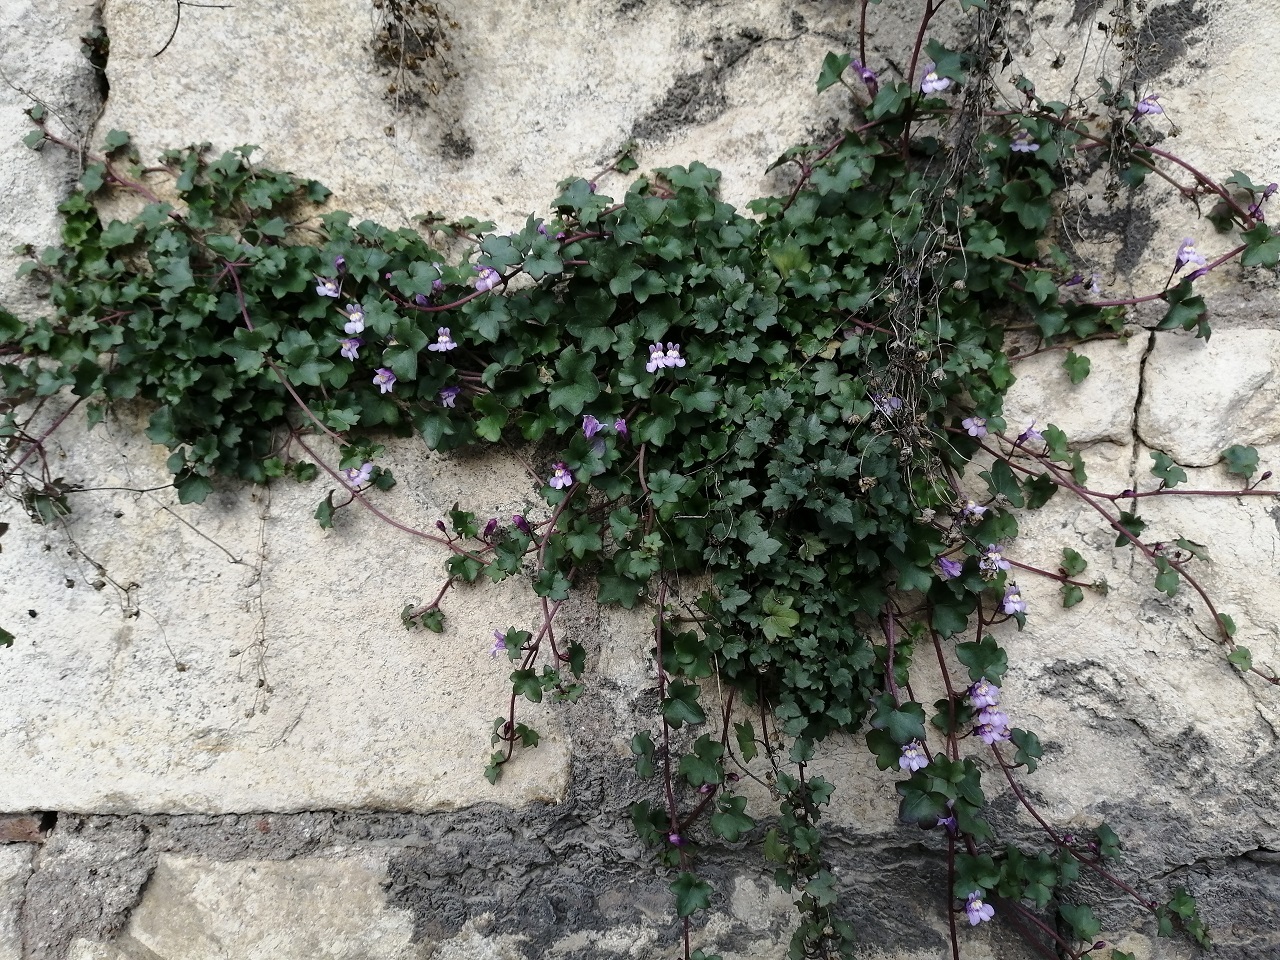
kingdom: Plantae
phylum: Tracheophyta
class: Magnoliopsida
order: Lamiales
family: Plantaginaceae
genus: Cymbalaria
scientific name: Cymbalaria muralis
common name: Ivy-leaved toadflax
